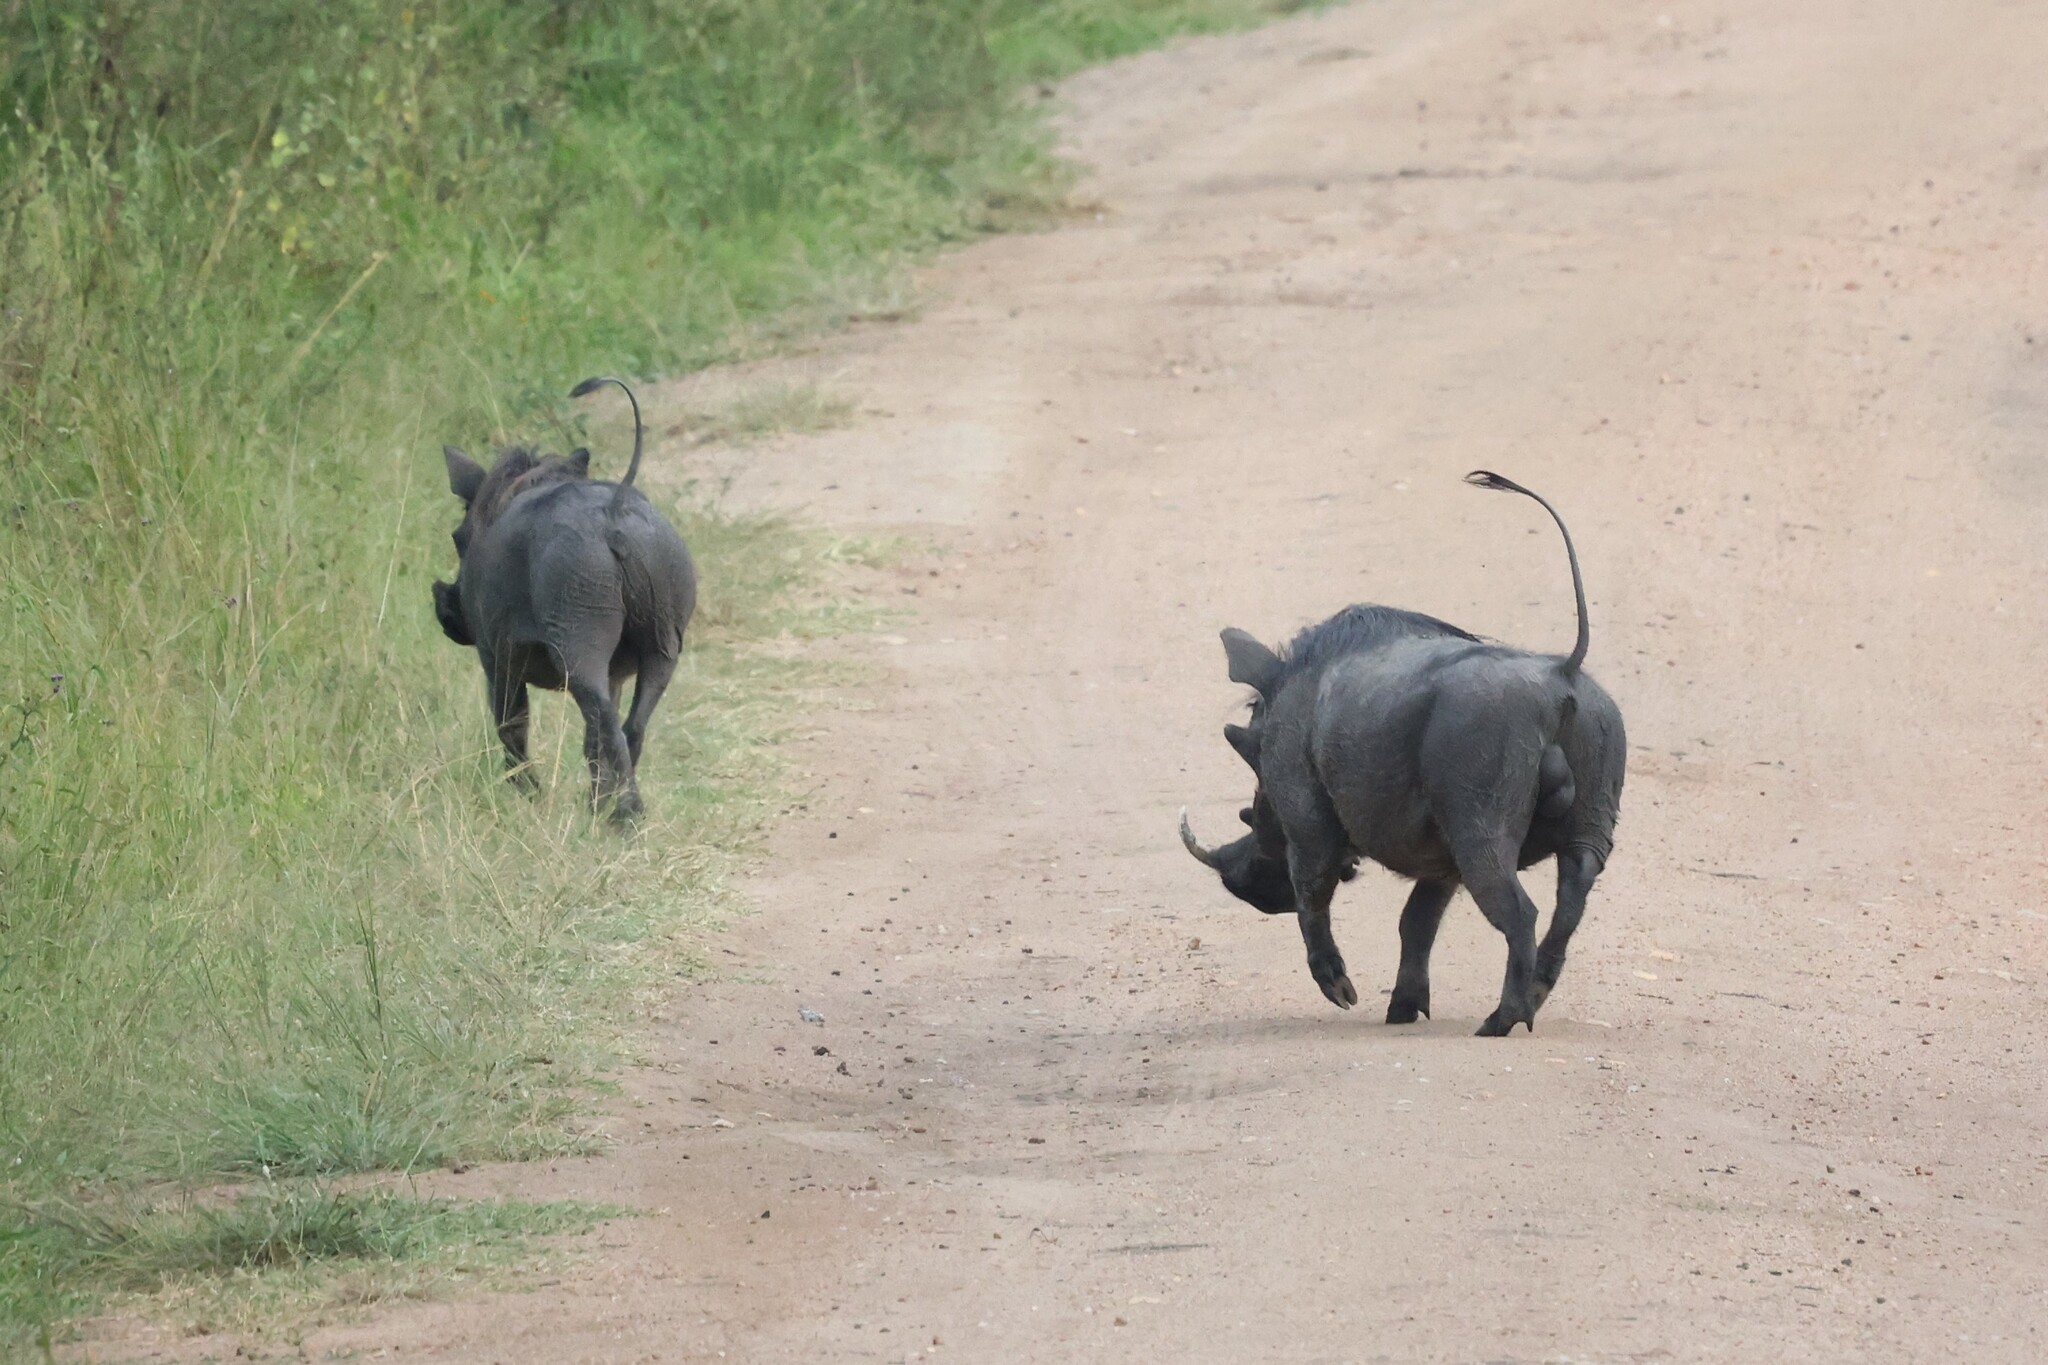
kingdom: Animalia
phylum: Chordata
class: Mammalia
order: Artiodactyla
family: Suidae
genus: Phacochoerus
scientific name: Phacochoerus africanus
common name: Common warthog
